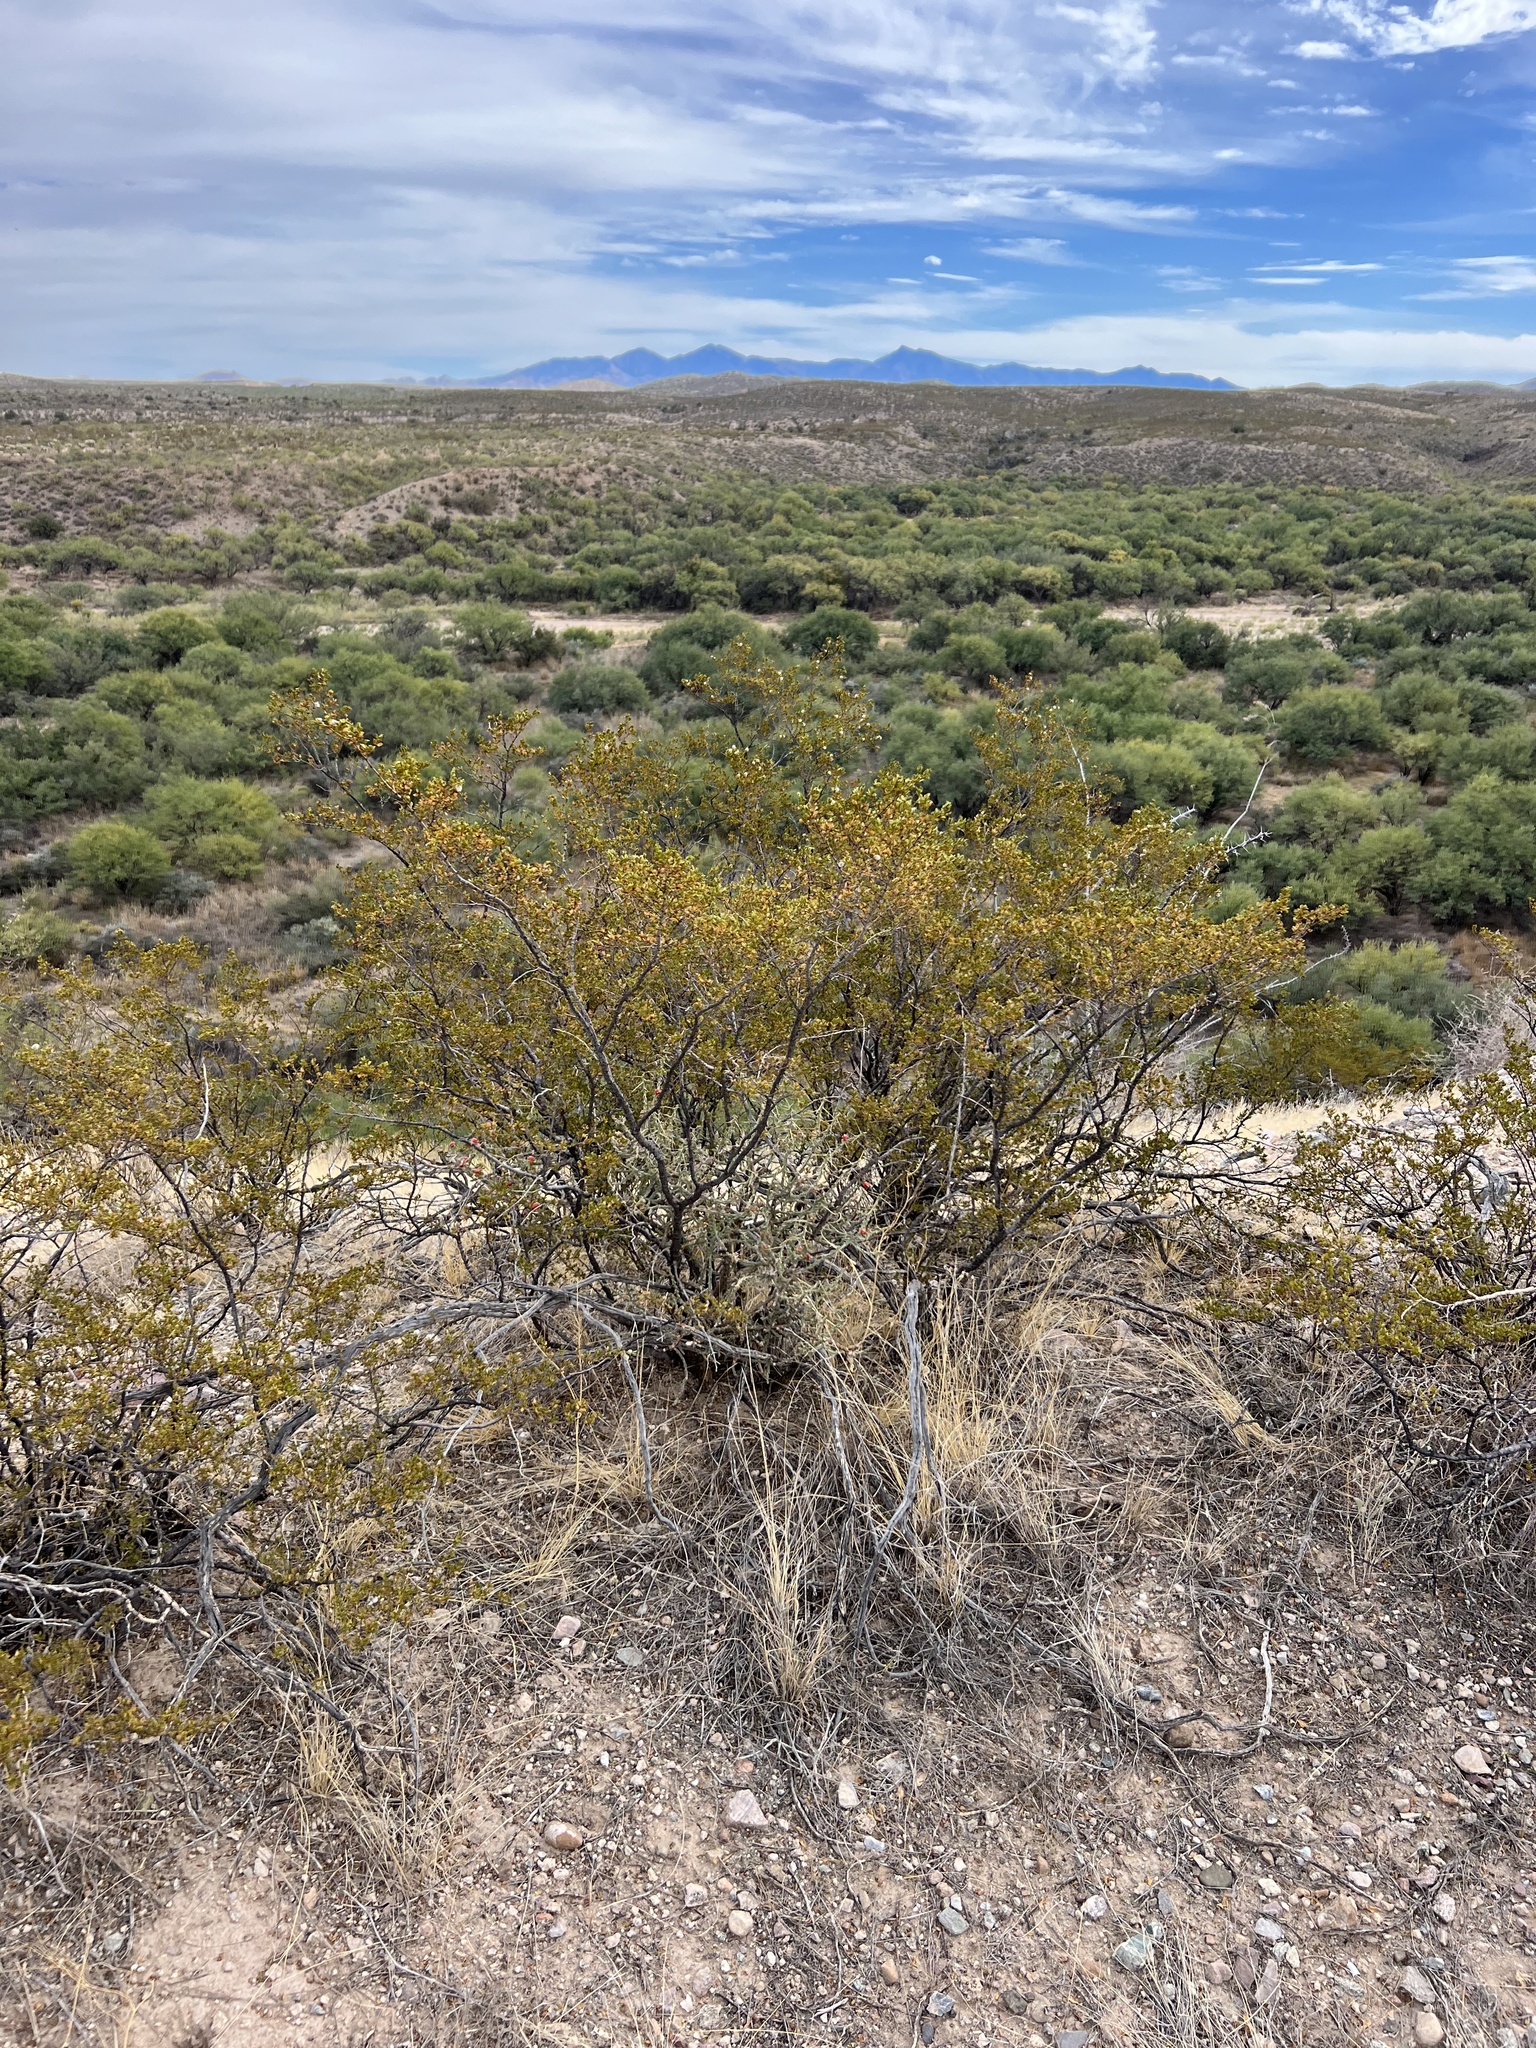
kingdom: Plantae
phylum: Tracheophyta
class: Magnoliopsida
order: Zygophyllales
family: Zygophyllaceae
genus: Larrea
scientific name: Larrea tridentata
